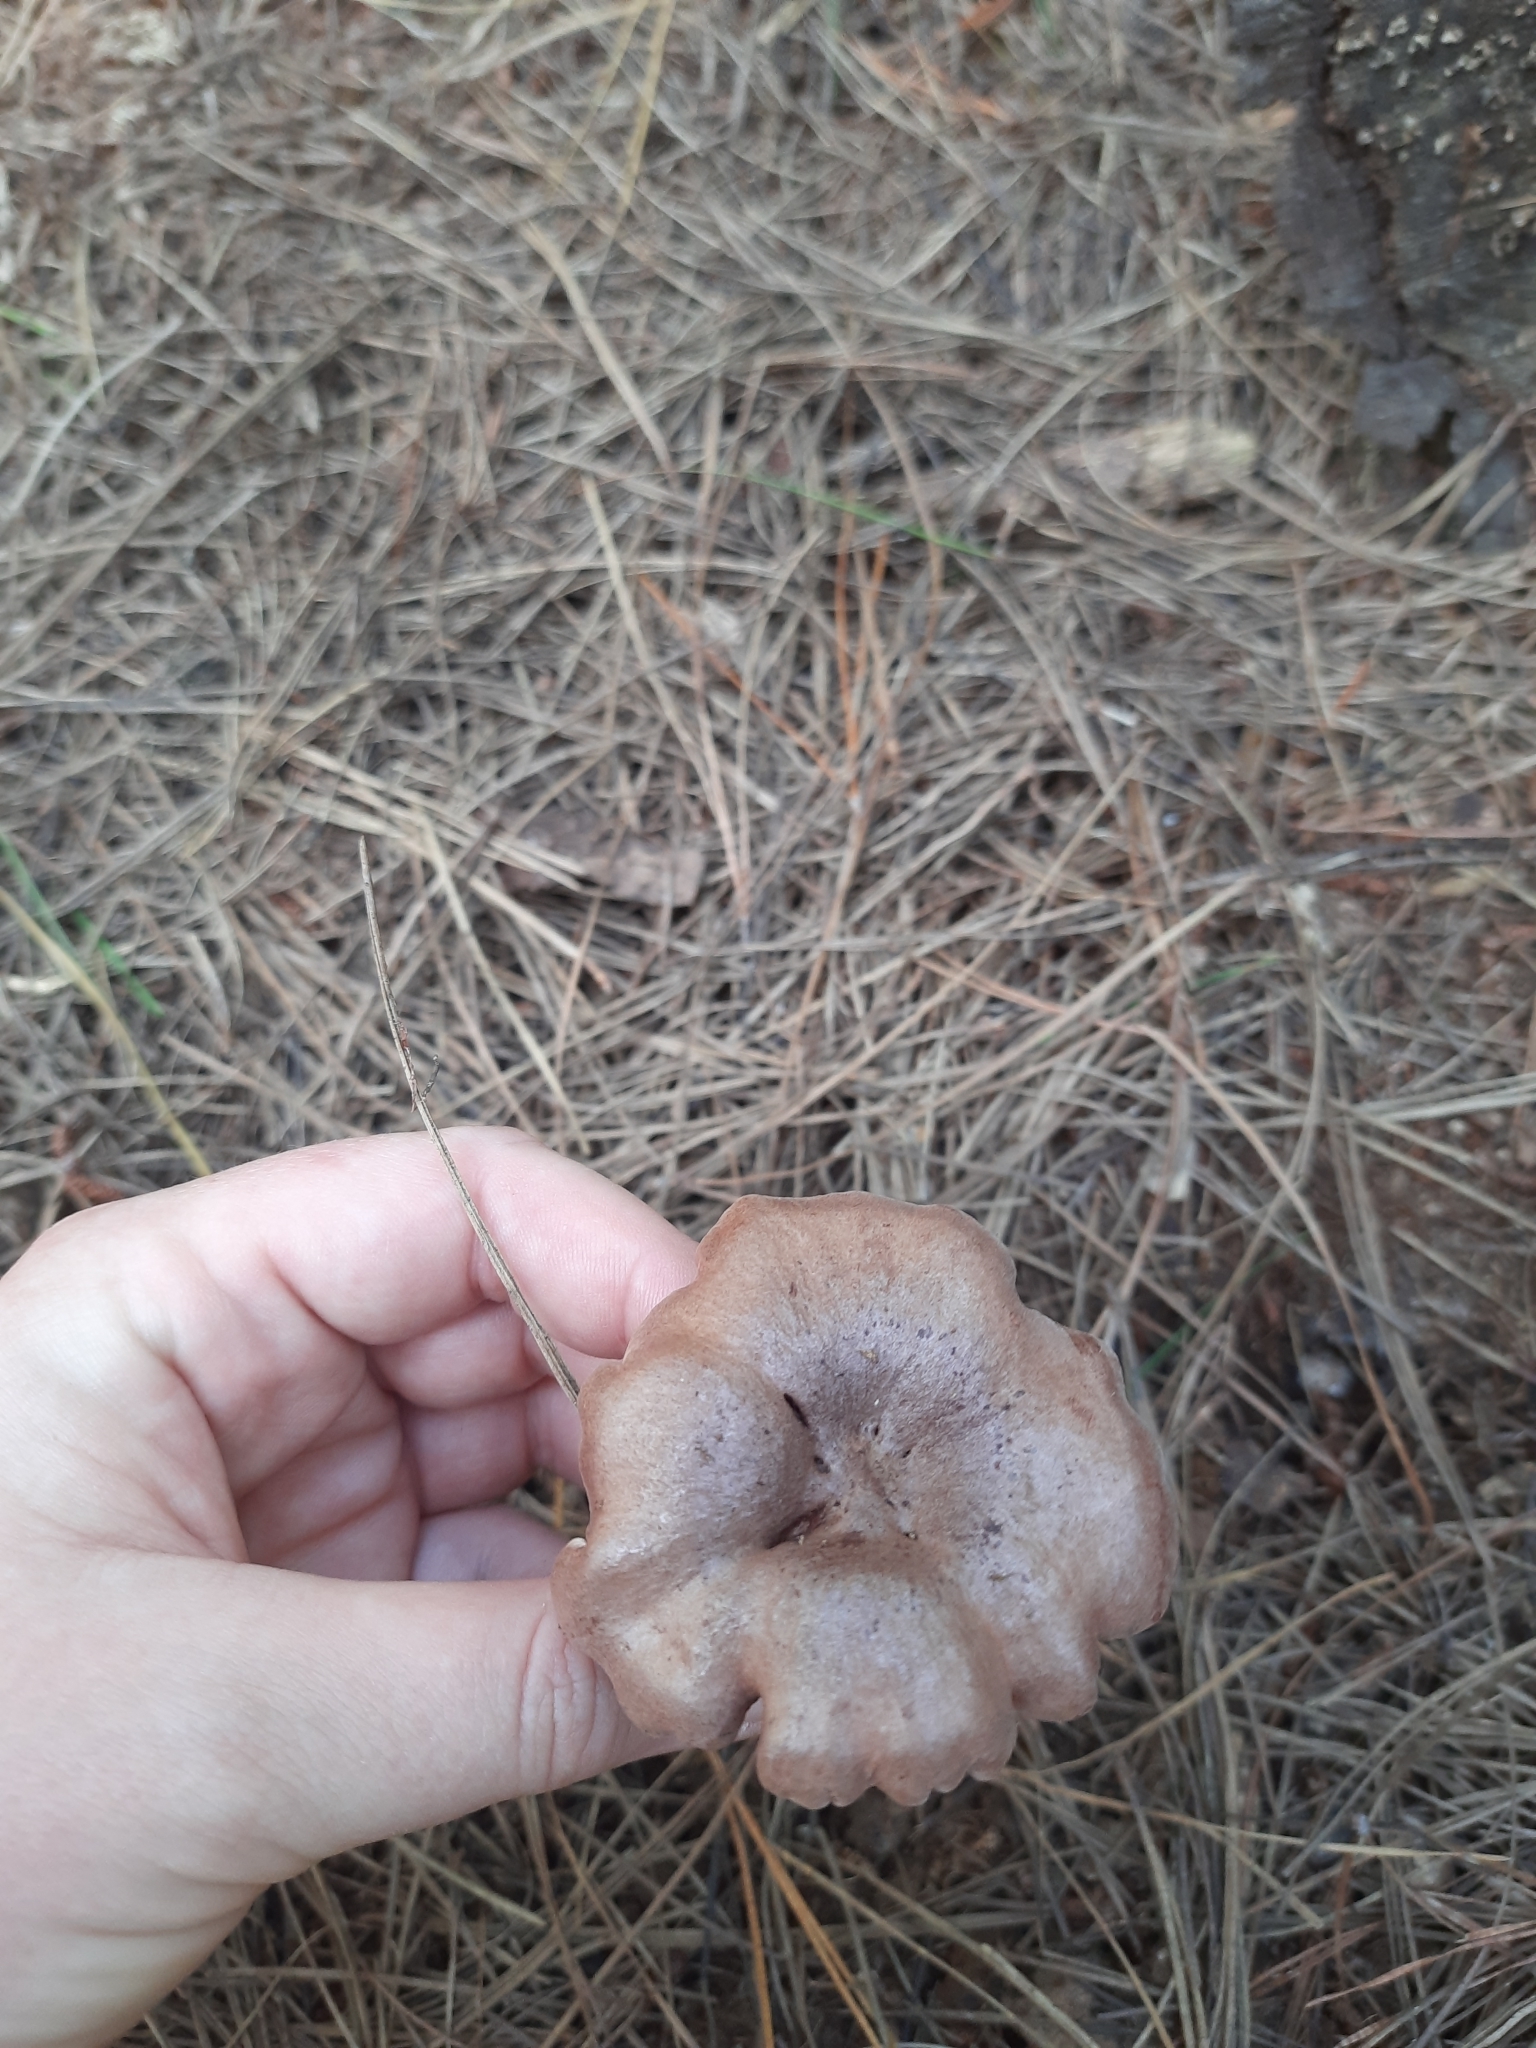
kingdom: Fungi
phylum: Basidiomycota
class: Agaricomycetes
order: Russulales
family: Russulaceae
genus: Lactarius
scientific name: Lactarius rufus
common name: Rufous milk-cap
